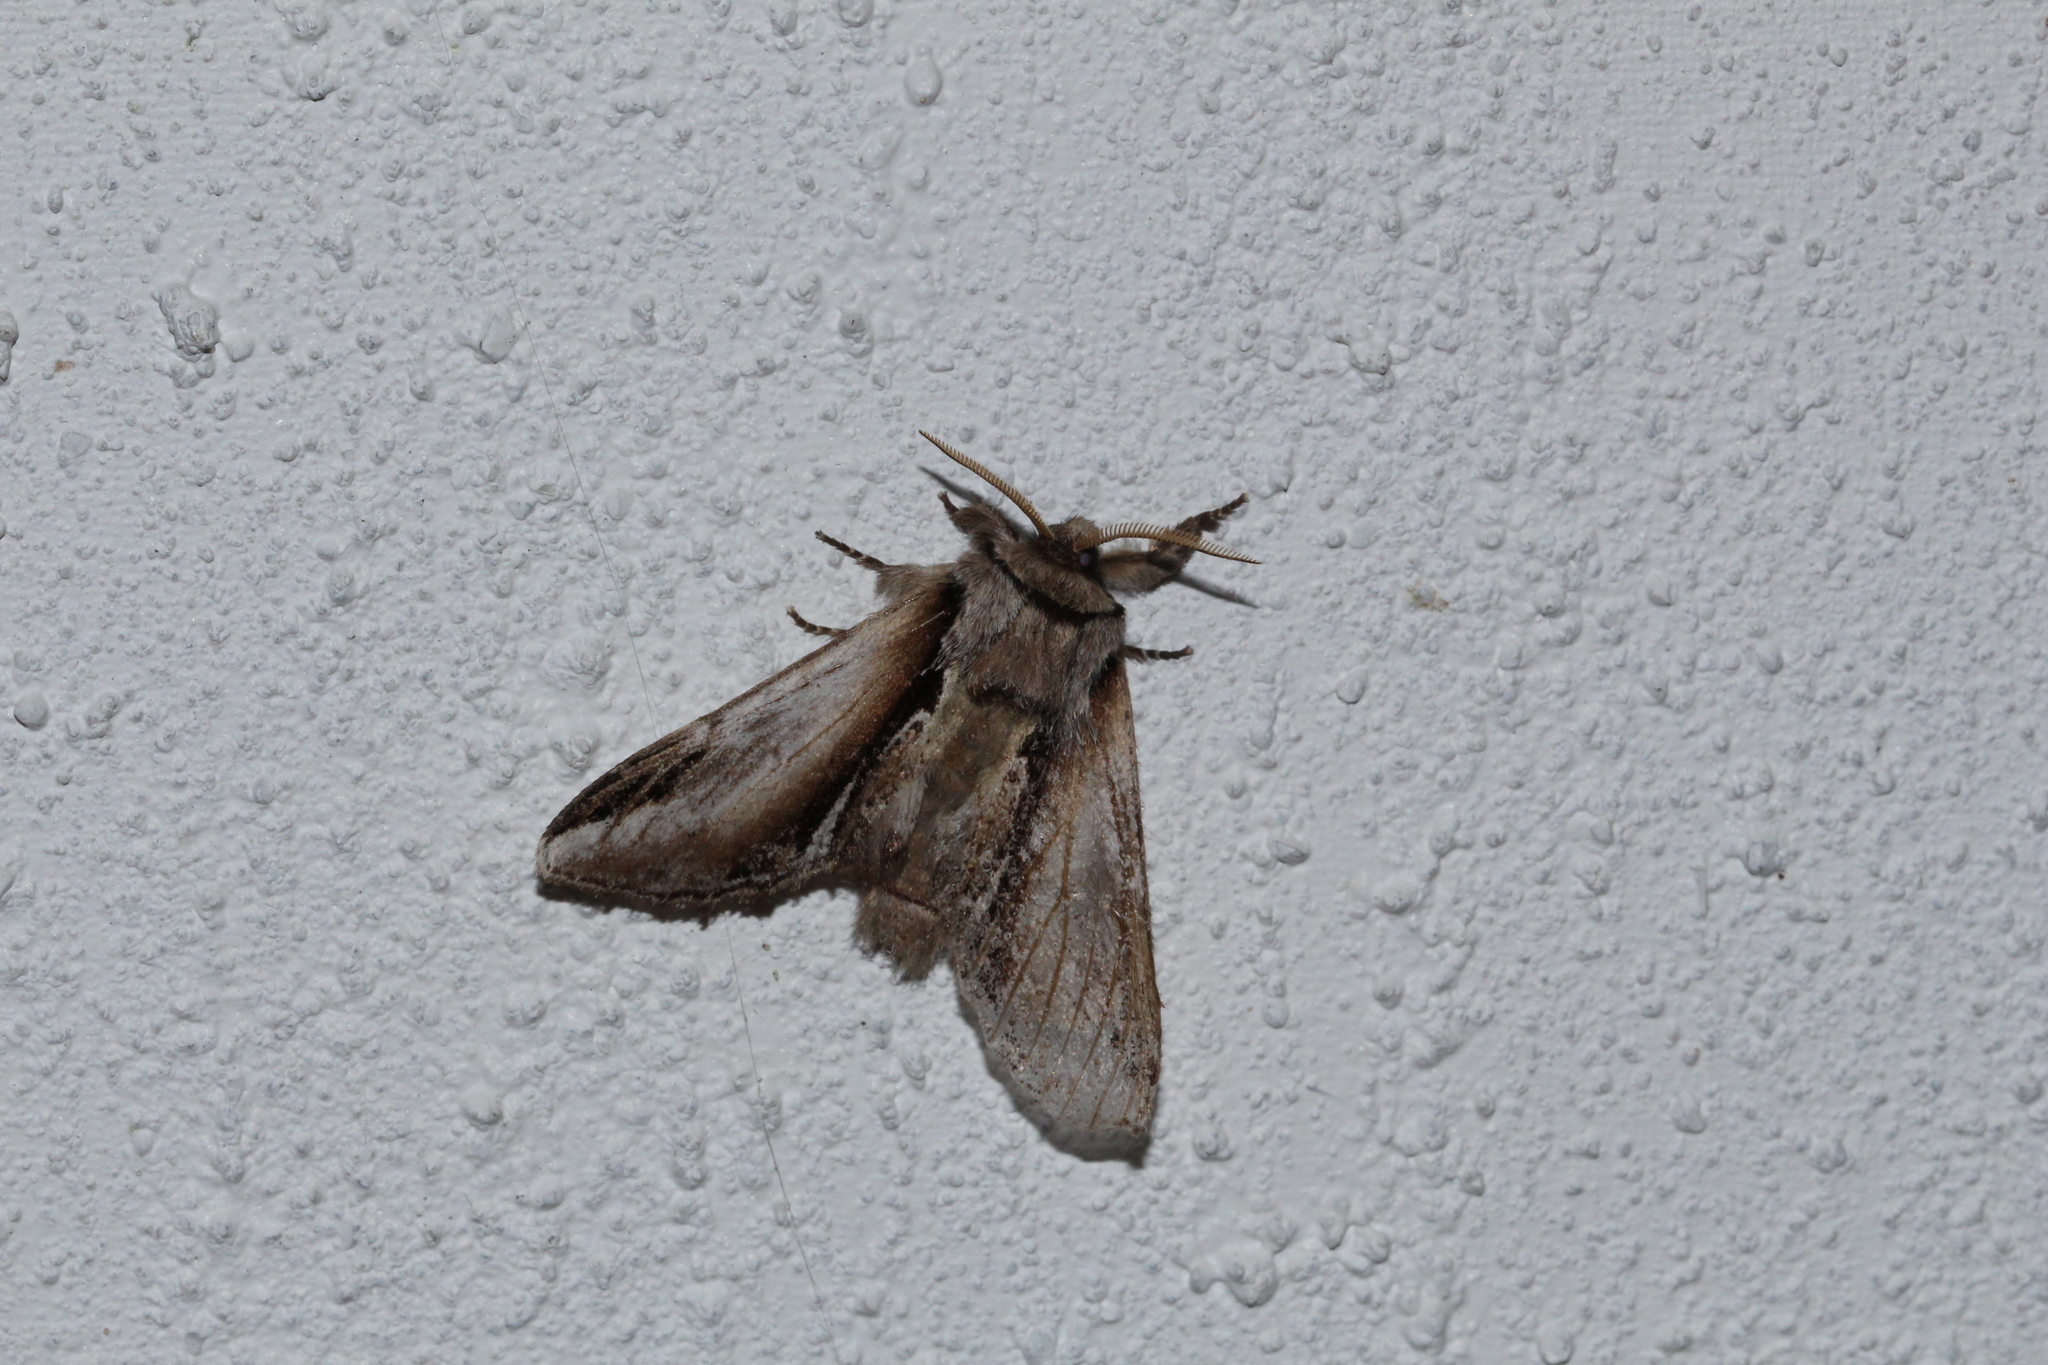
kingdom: Animalia
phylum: Arthropoda
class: Insecta
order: Lepidoptera
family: Notodontidae
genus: Pheosia
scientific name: Pheosia gnoma
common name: Lesser swallow prominent
